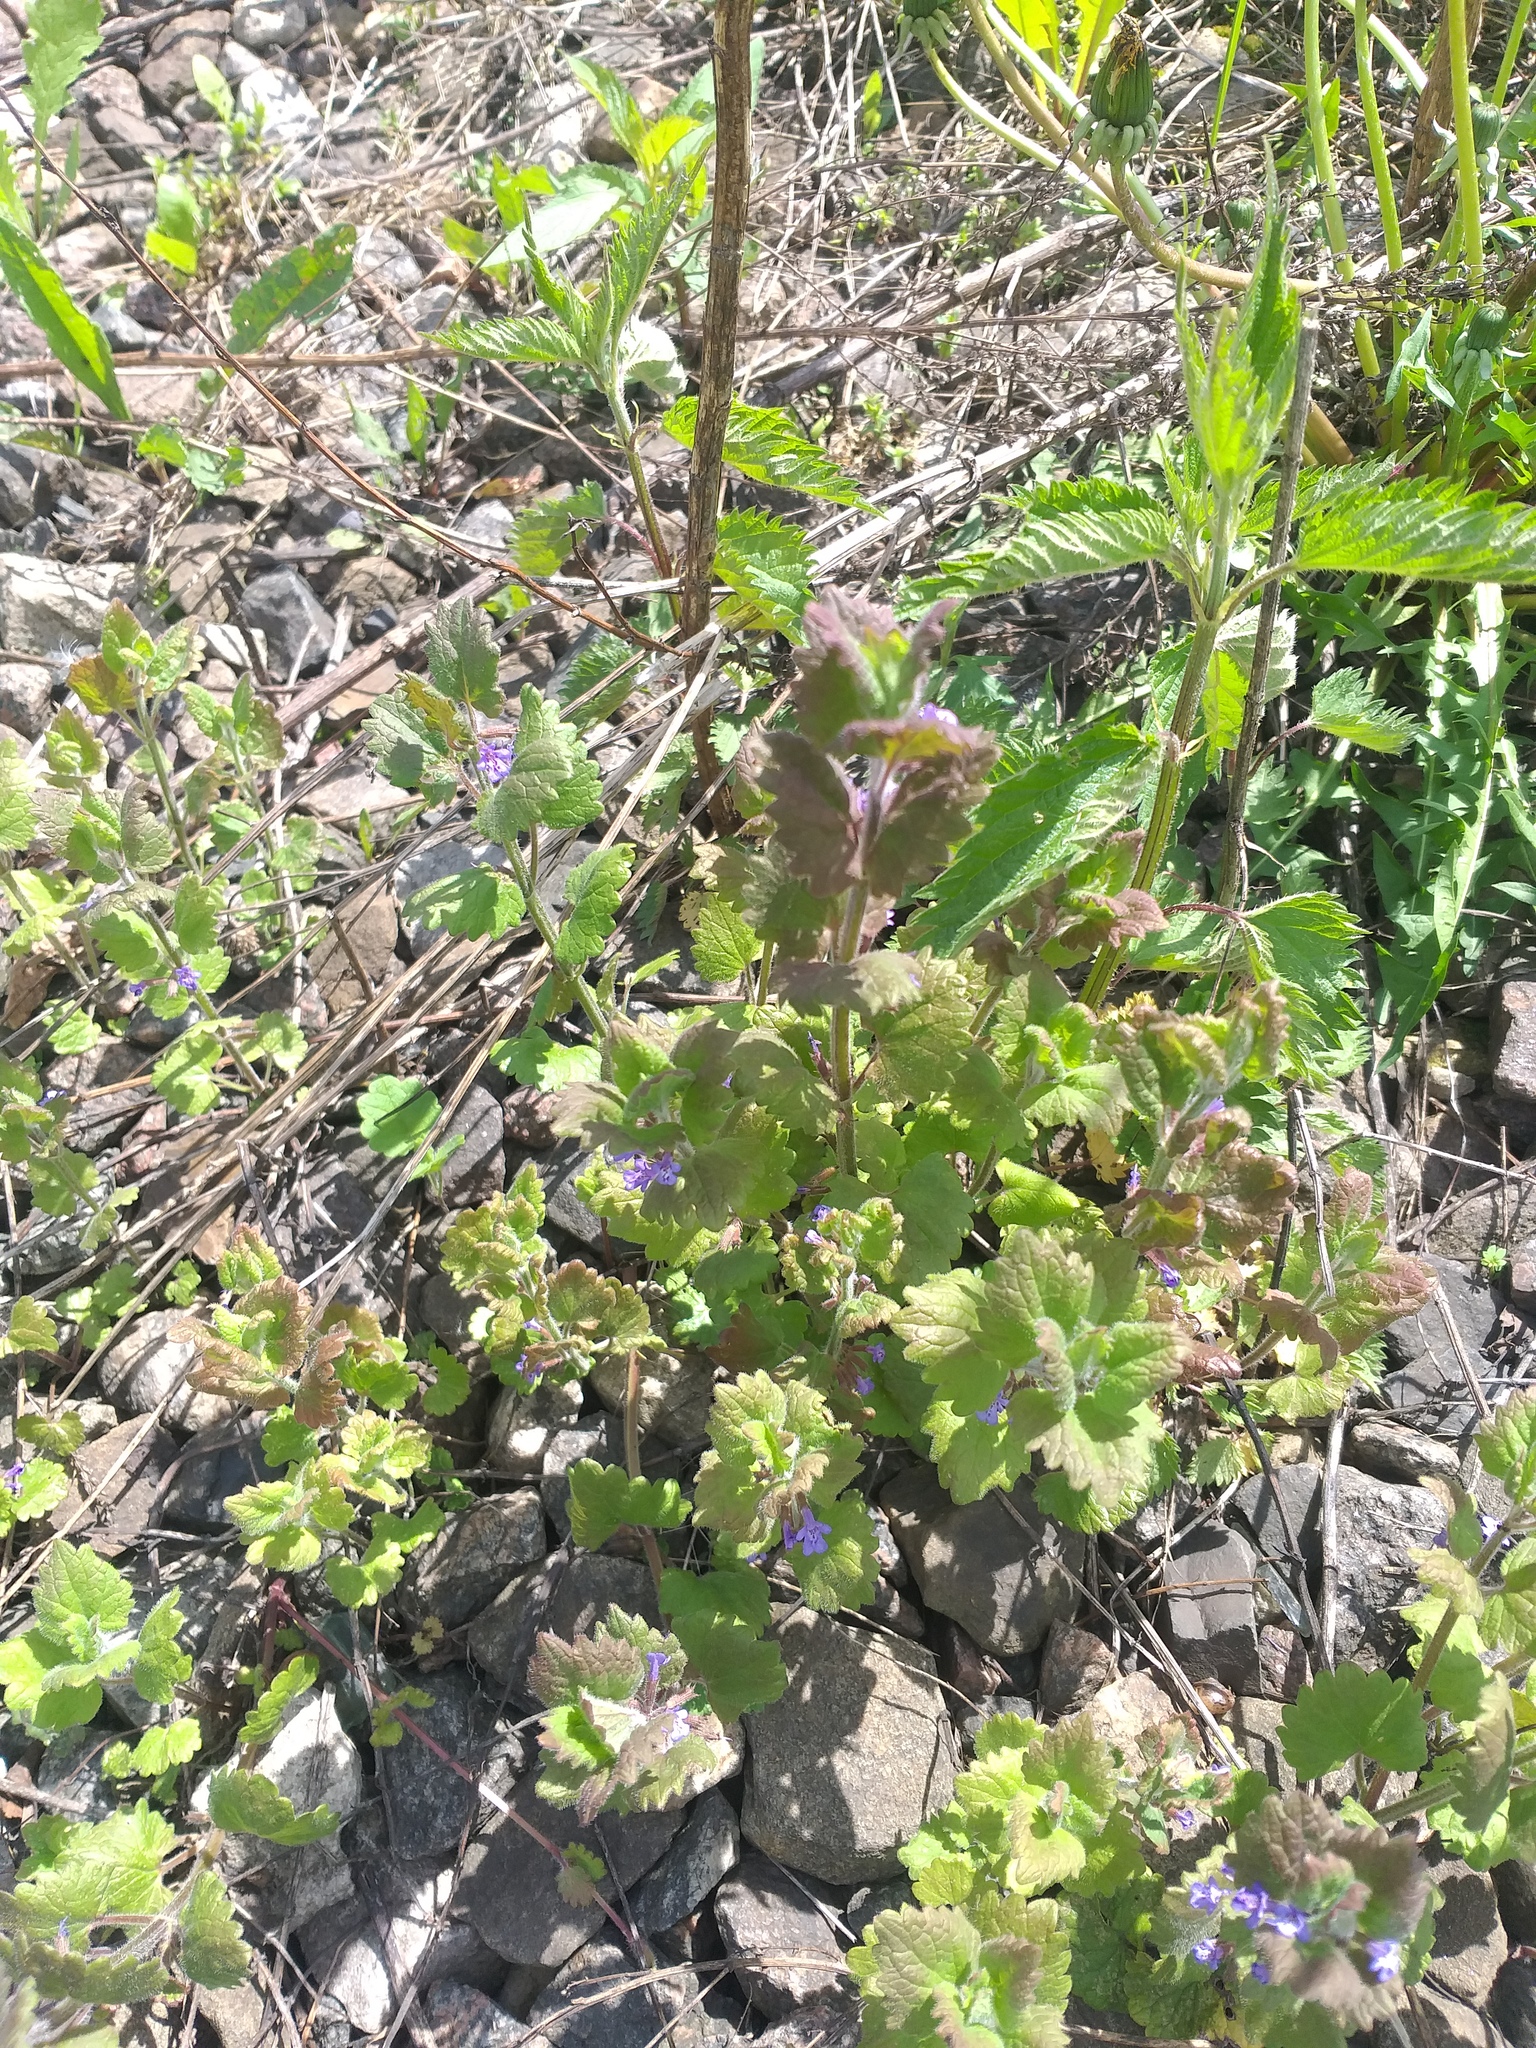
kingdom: Plantae
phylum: Tracheophyta
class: Magnoliopsida
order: Lamiales
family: Lamiaceae
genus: Glechoma
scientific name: Glechoma hederacea
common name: Ground ivy
